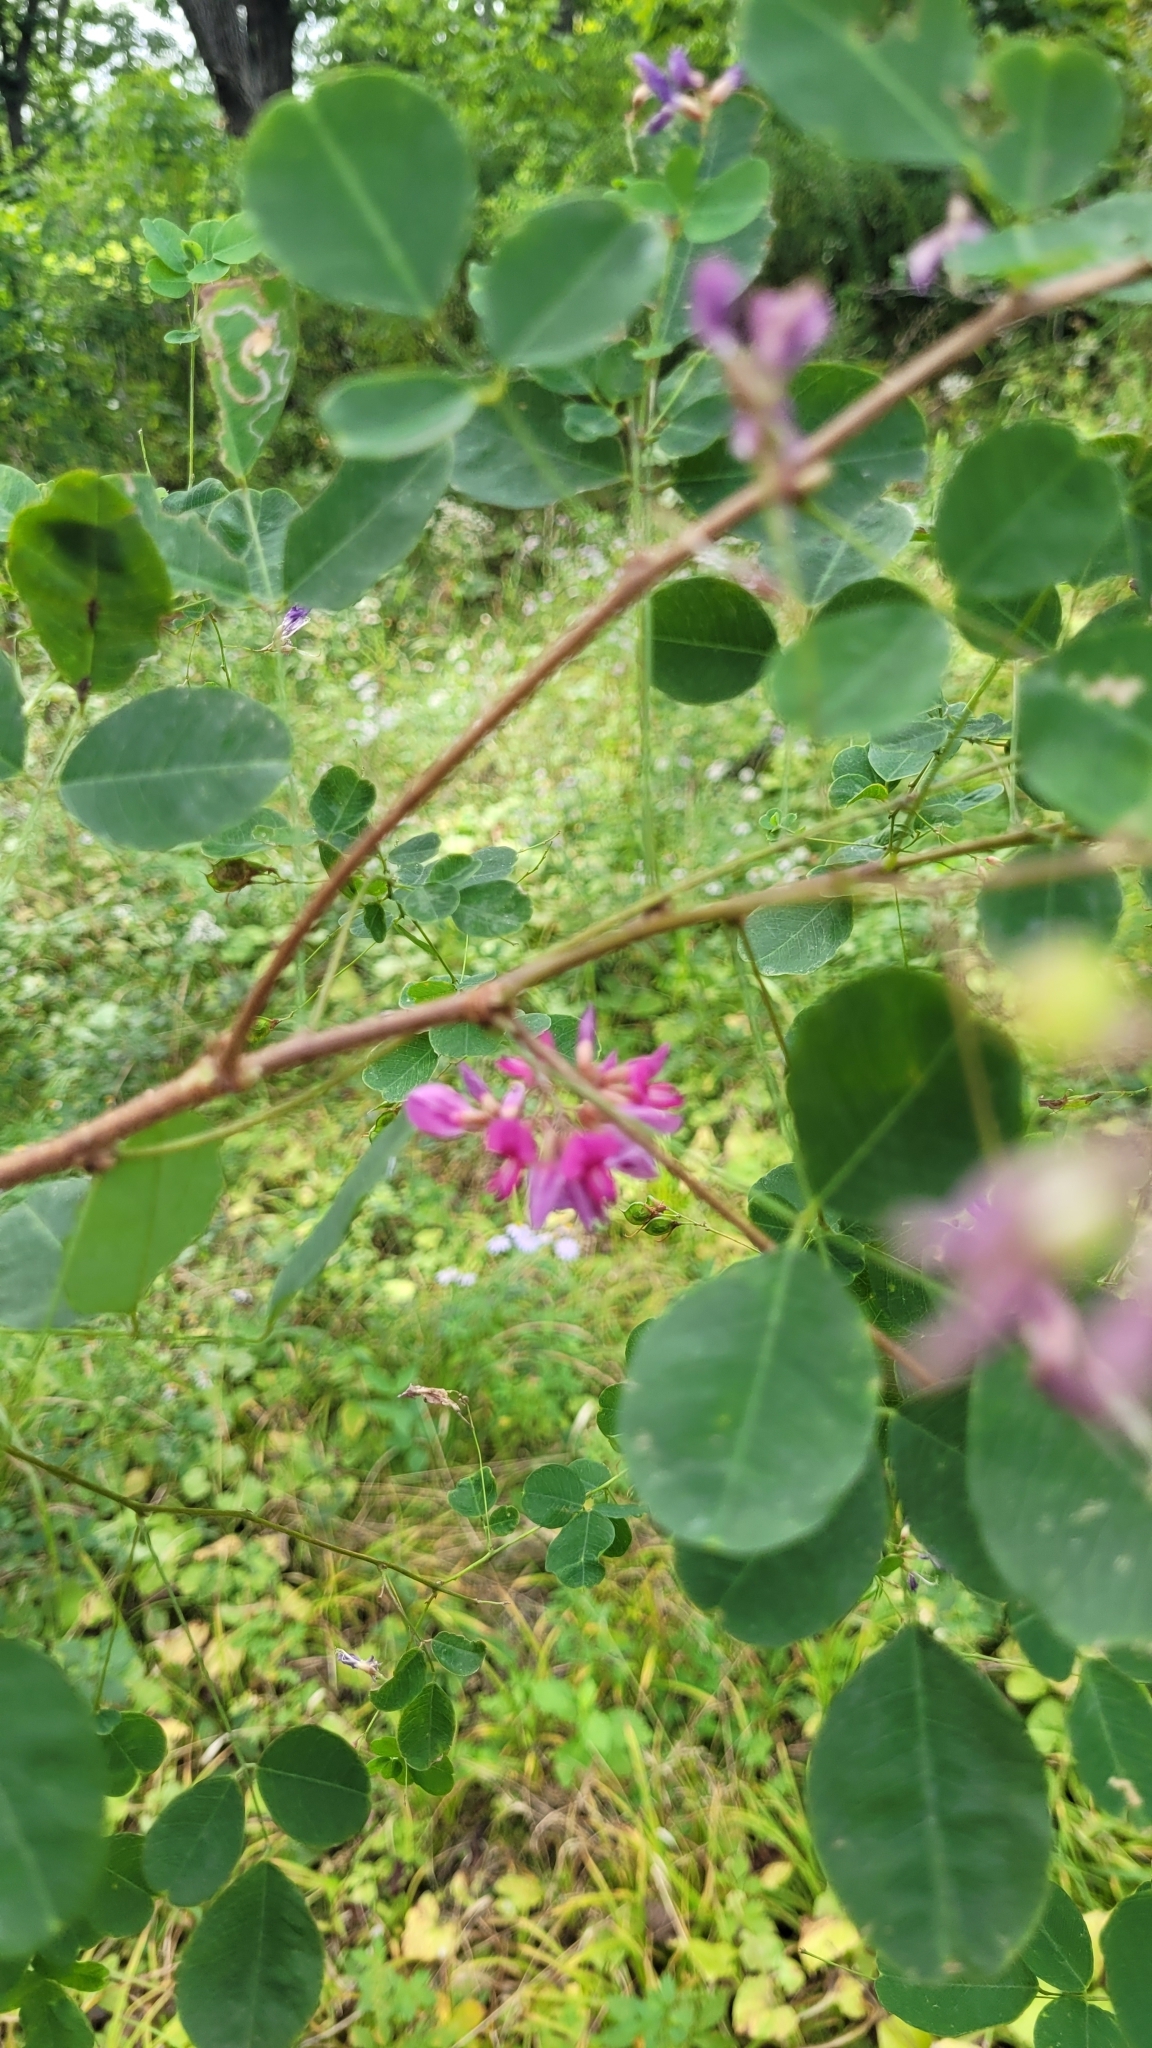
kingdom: Plantae
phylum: Tracheophyta
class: Magnoliopsida
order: Fabales
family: Fabaceae
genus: Lespedeza
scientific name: Lespedeza bicolor
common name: Shrub lespedeza
